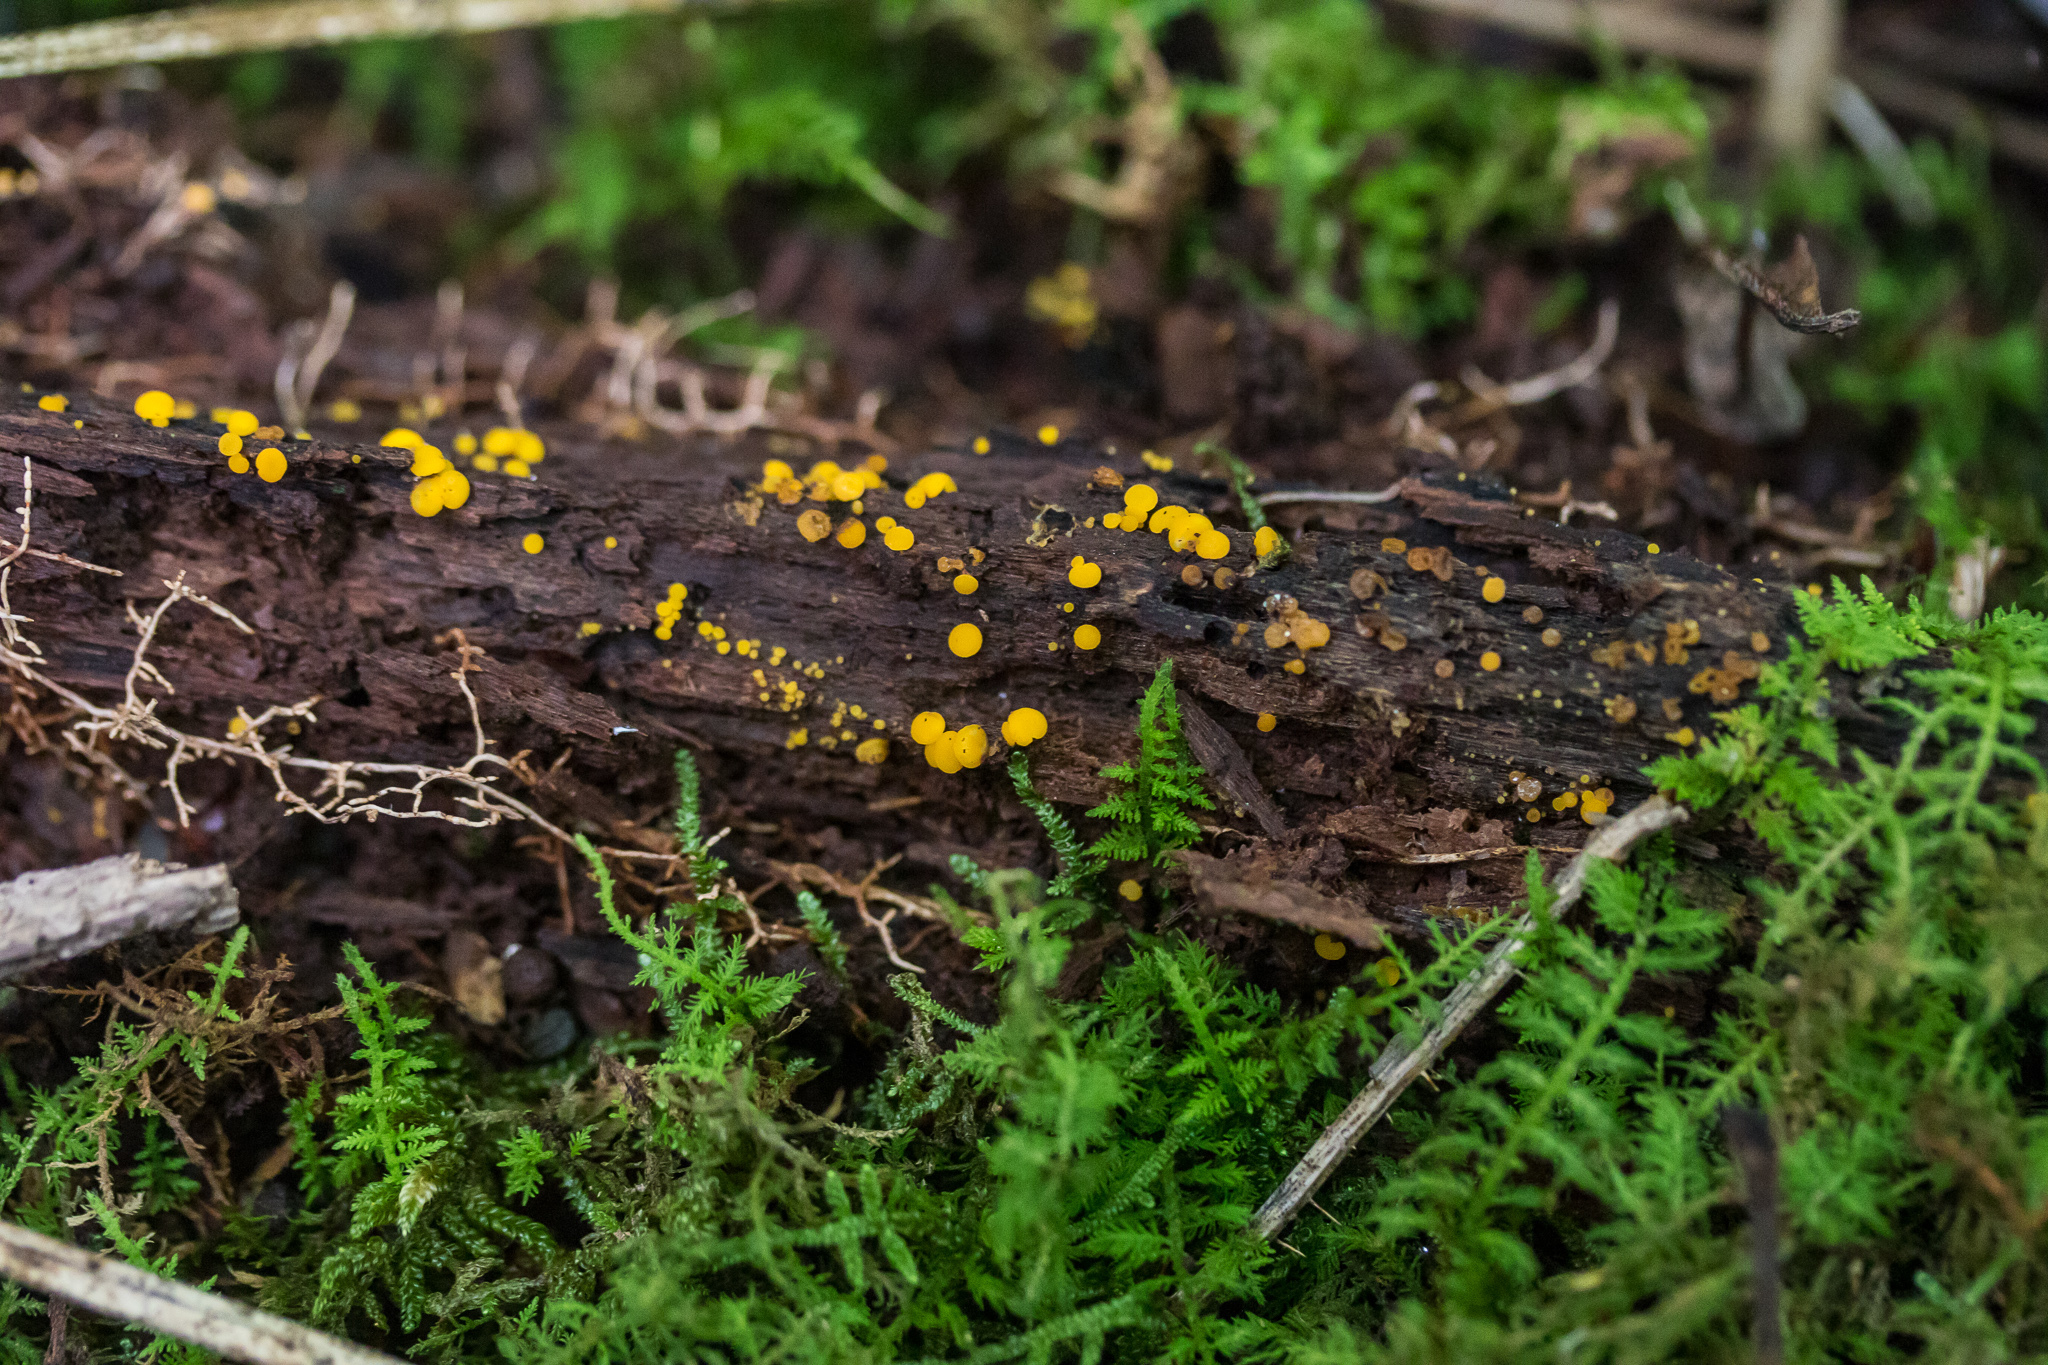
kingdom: Fungi
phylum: Ascomycota
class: Leotiomycetes
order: Helotiales
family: Pezizellaceae
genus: Calycina
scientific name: Calycina citrina
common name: Yellow fairy cups
